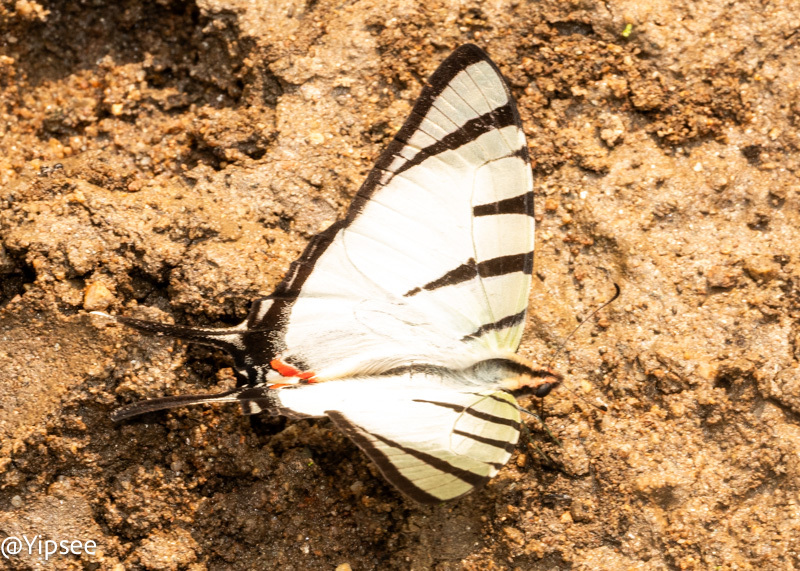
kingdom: Animalia
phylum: Arthropoda
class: Insecta
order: Lepidoptera
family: Papilionidae
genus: Graphium
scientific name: Graphium agetes
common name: Fourbar swordtail
